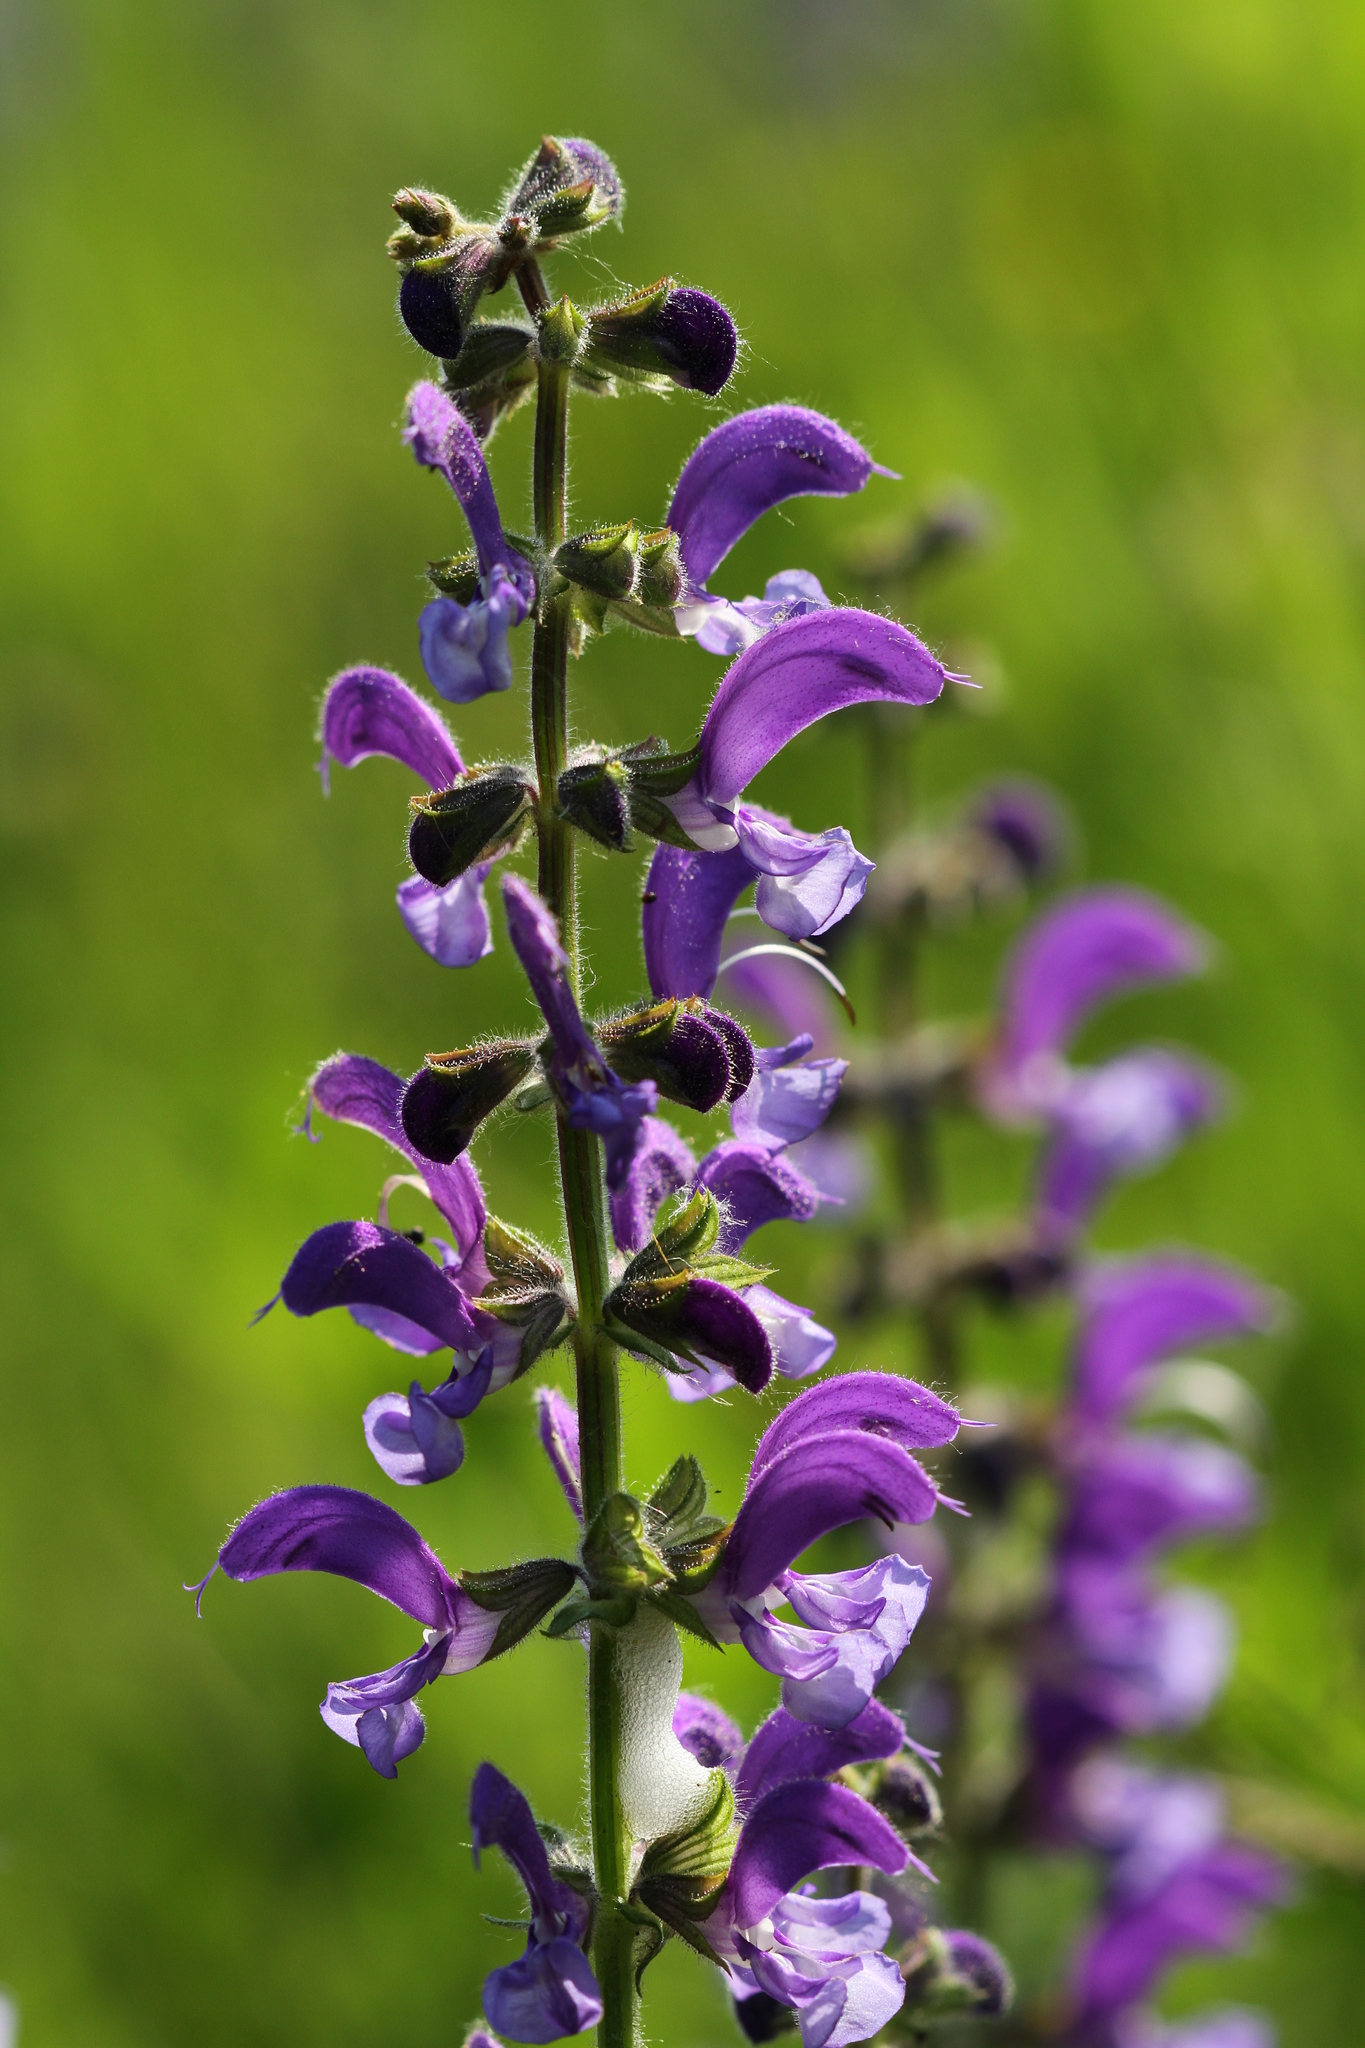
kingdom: Plantae
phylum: Tracheophyta
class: Magnoliopsida
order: Lamiales
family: Lamiaceae
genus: Salvia
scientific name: Salvia pratensis
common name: Meadow sage
